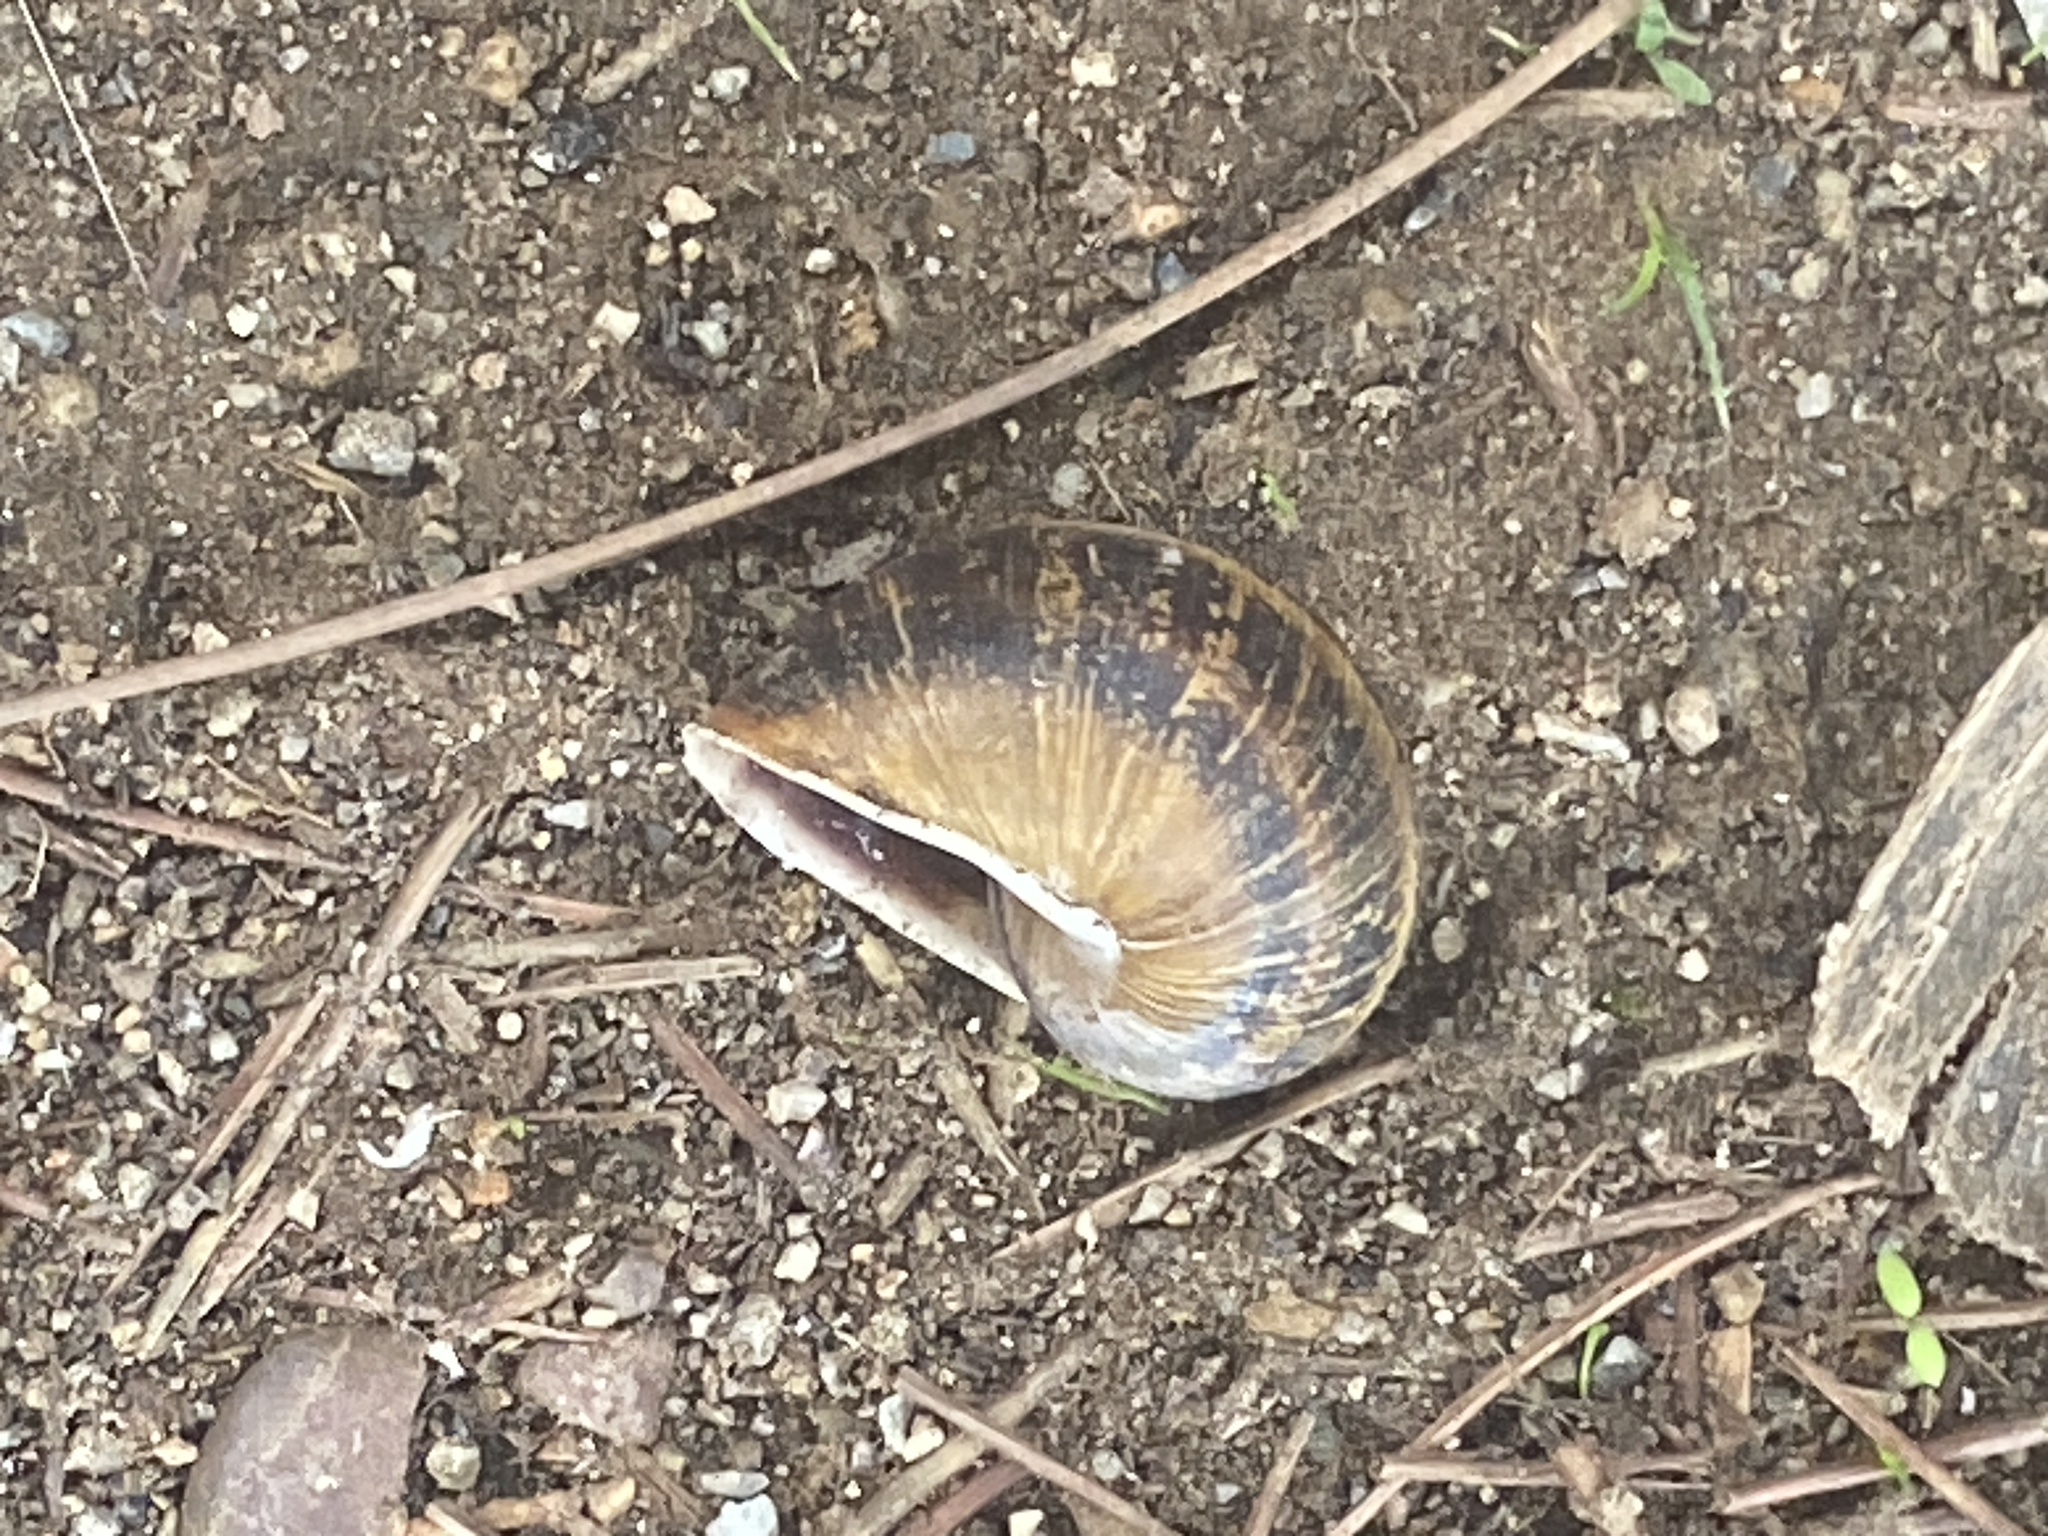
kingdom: Animalia
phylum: Mollusca
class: Gastropoda
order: Stylommatophora
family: Helicidae
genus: Cornu
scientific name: Cornu aspersum
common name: Brown garden snail
